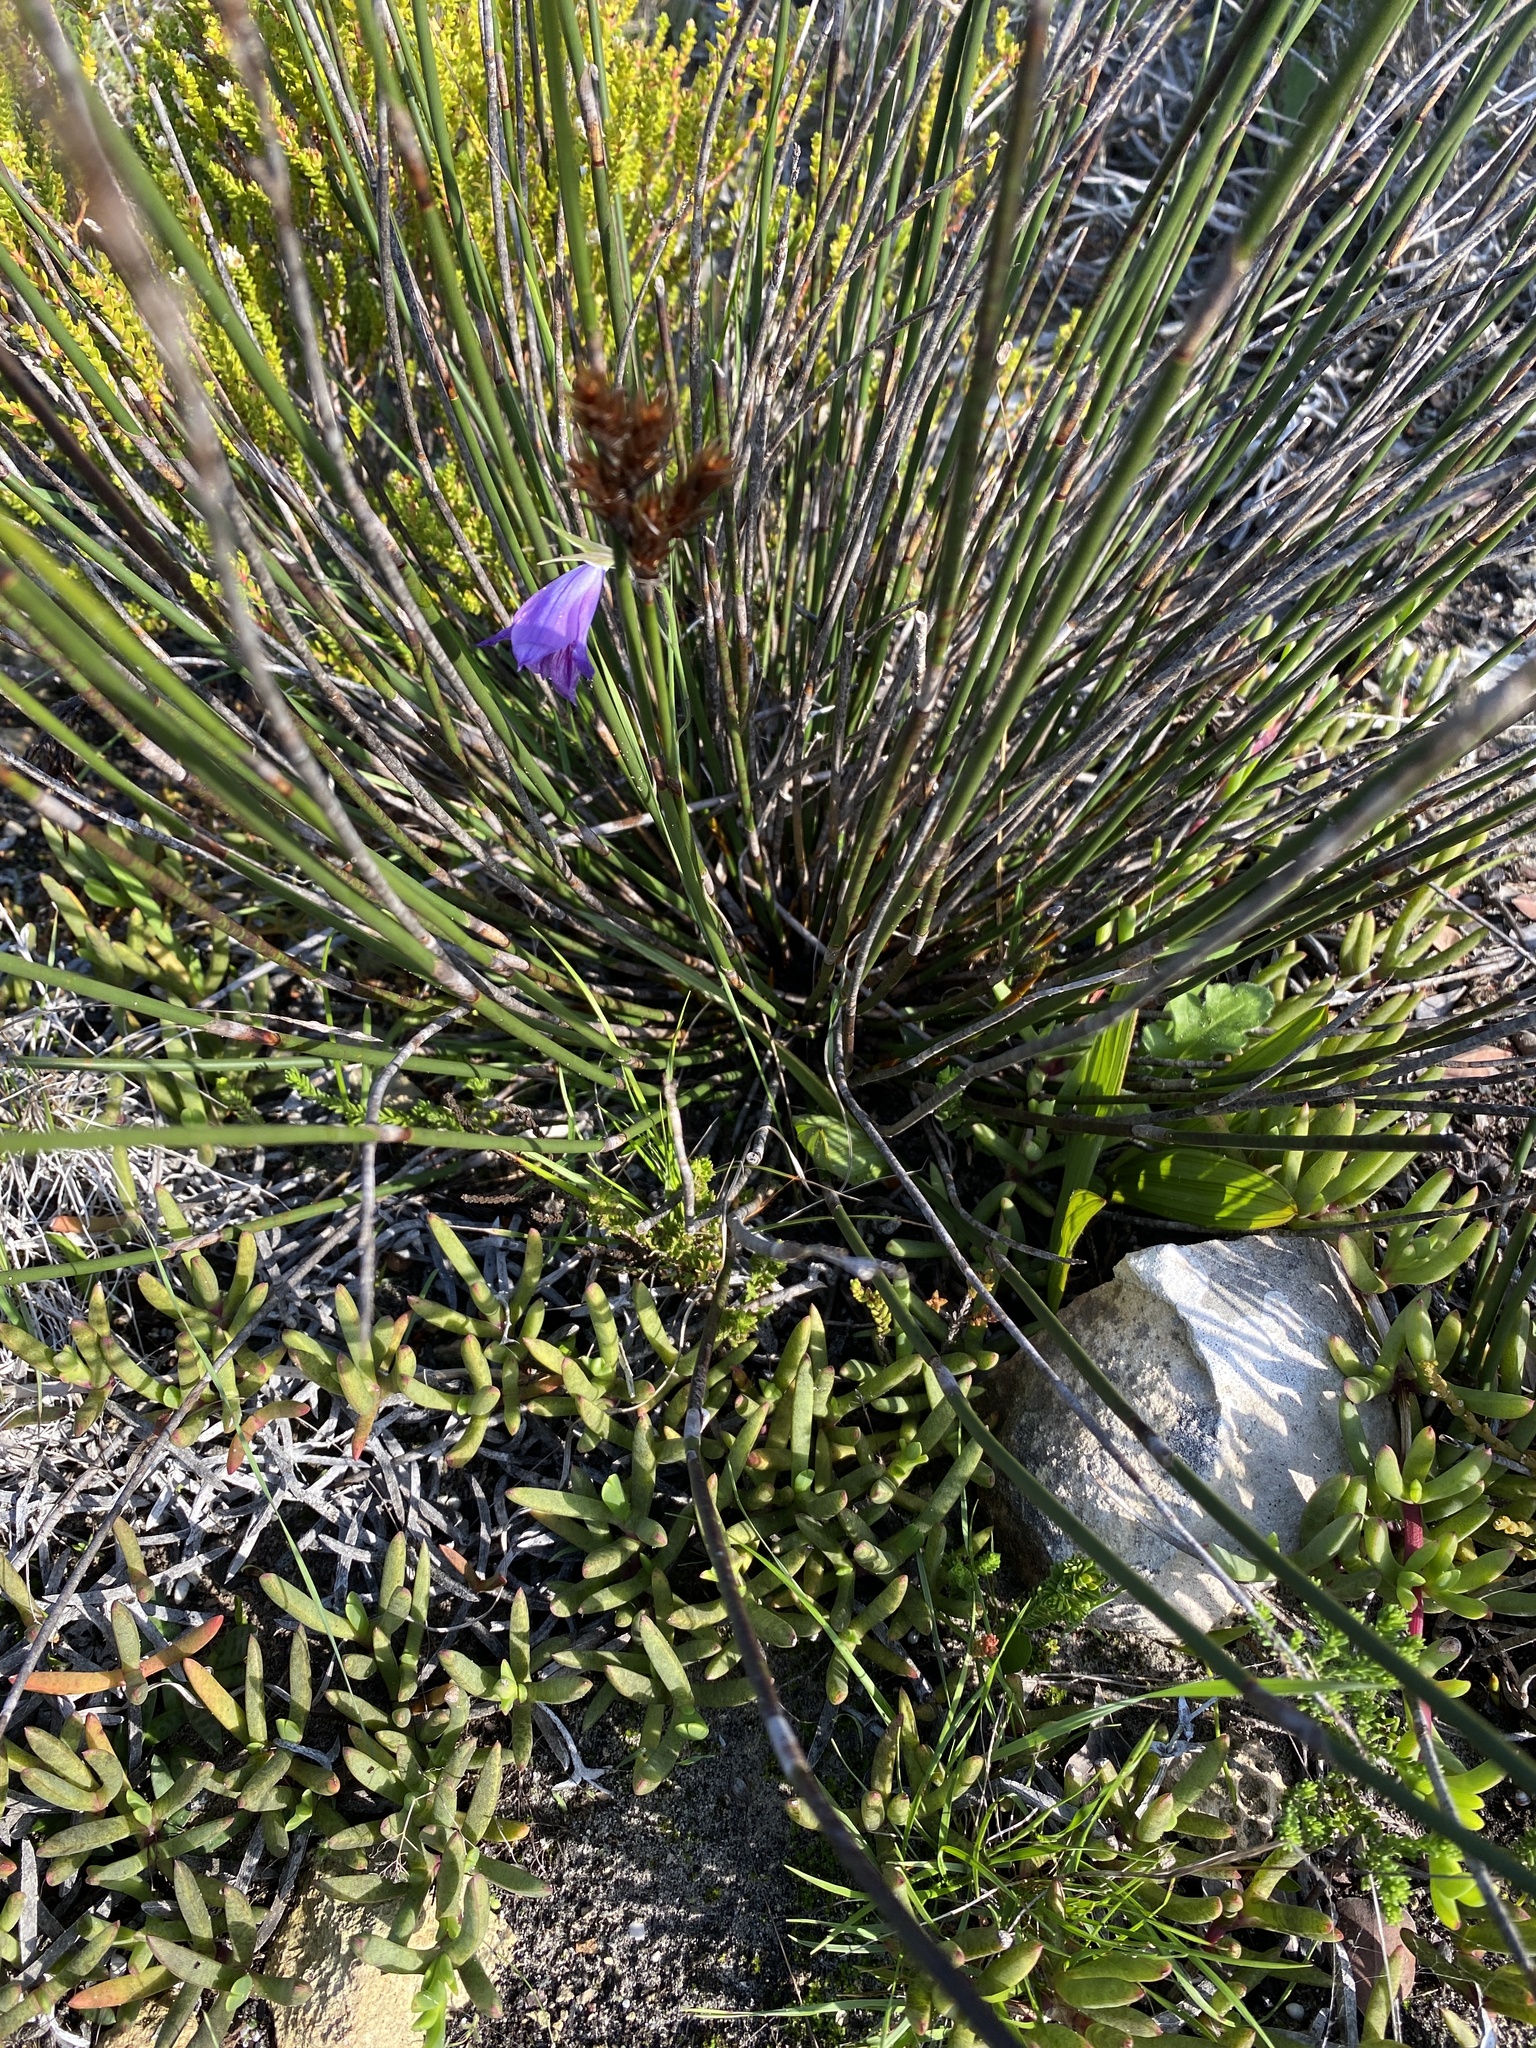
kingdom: Plantae
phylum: Tracheophyta
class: Liliopsida
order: Asparagales
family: Iridaceae
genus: Gladiolus
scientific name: Gladiolus inflexus
